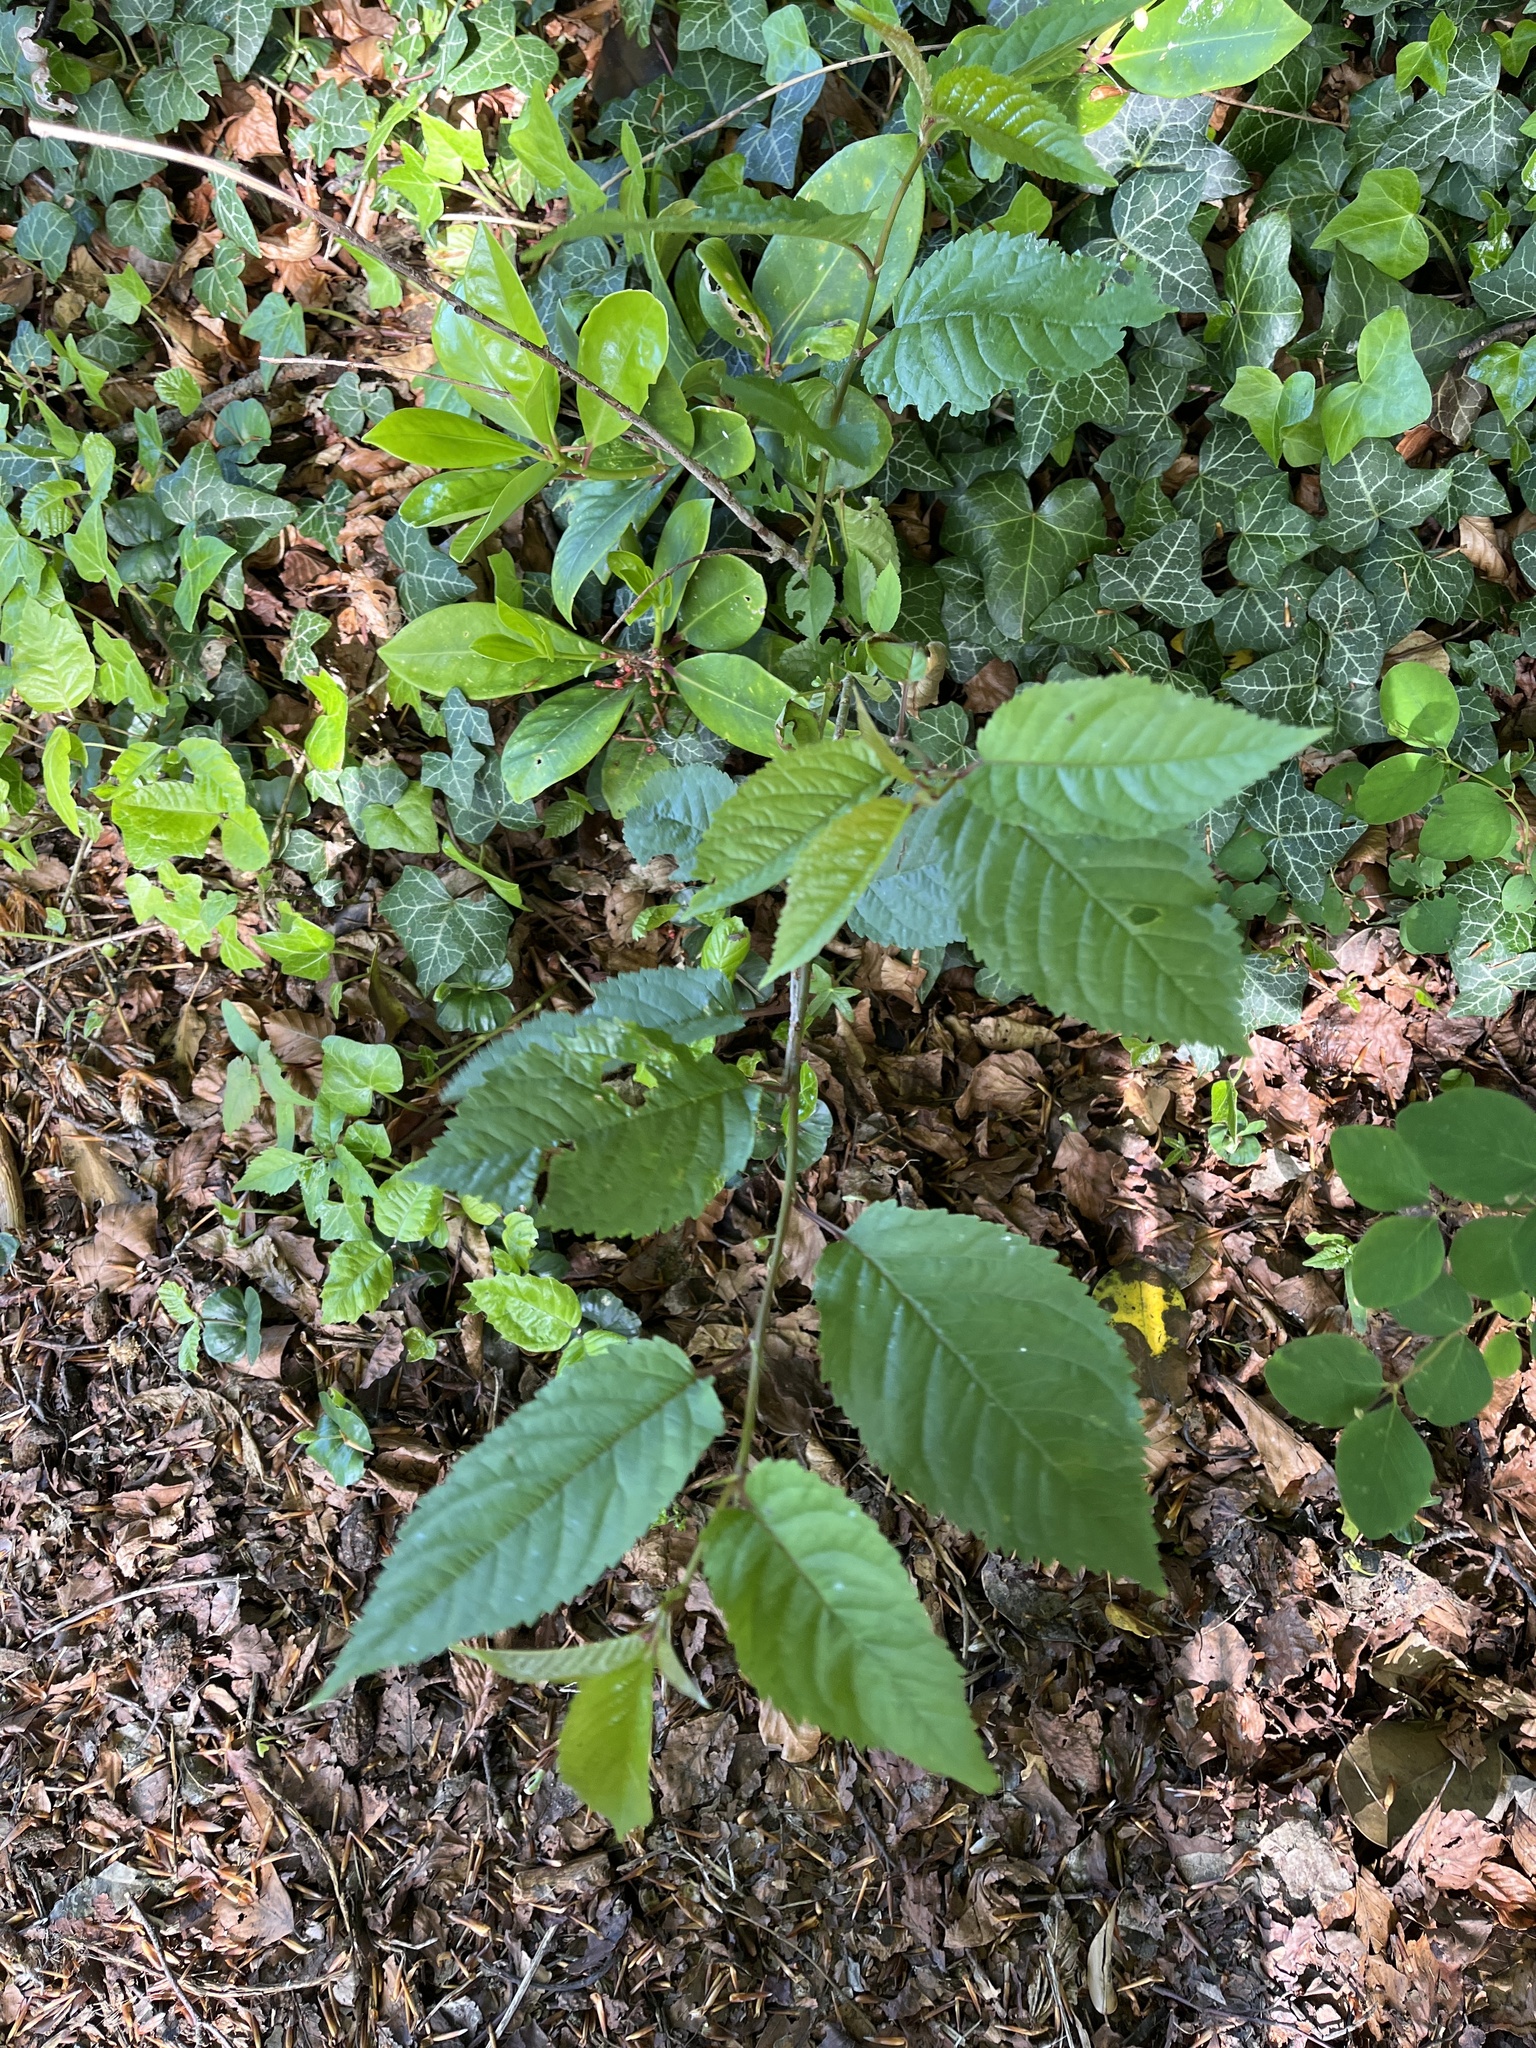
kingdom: Plantae
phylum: Tracheophyta
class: Magnoliopsida
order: Rosales
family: Rosaceae
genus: Prunus
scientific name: Prunus avium
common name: Sweet cherry
